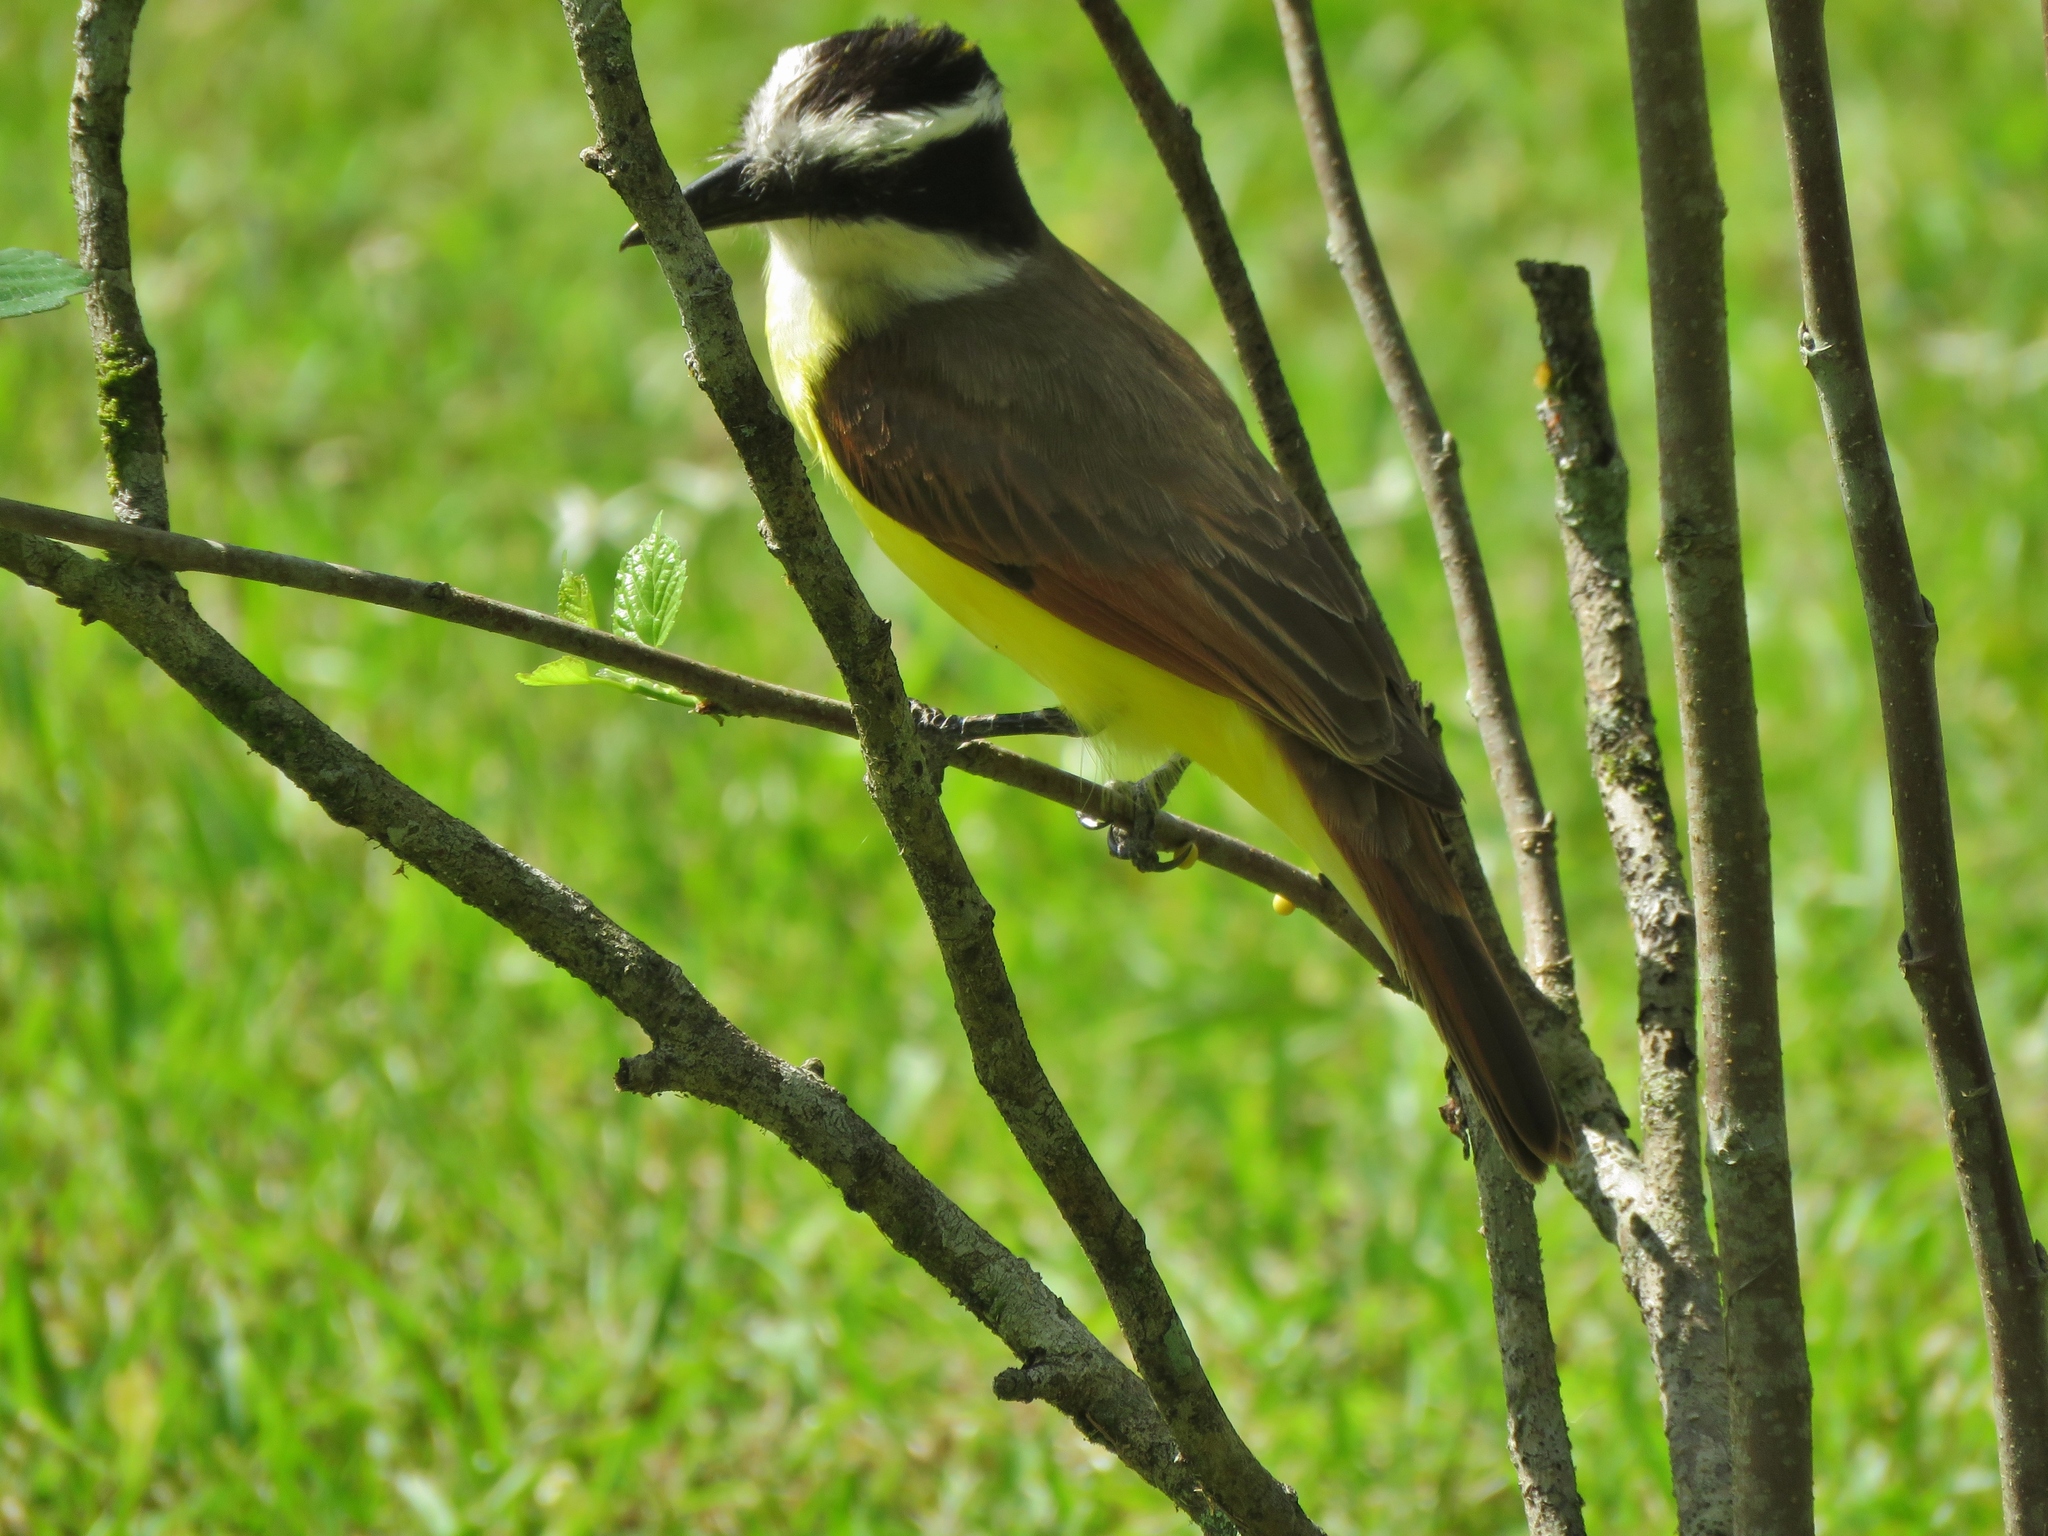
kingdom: Animalia
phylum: Chordata
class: Aves
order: Passeriformes
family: Tyrannidae
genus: Pitangus
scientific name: Pitangus sulphuratus
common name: Great kiskadee
